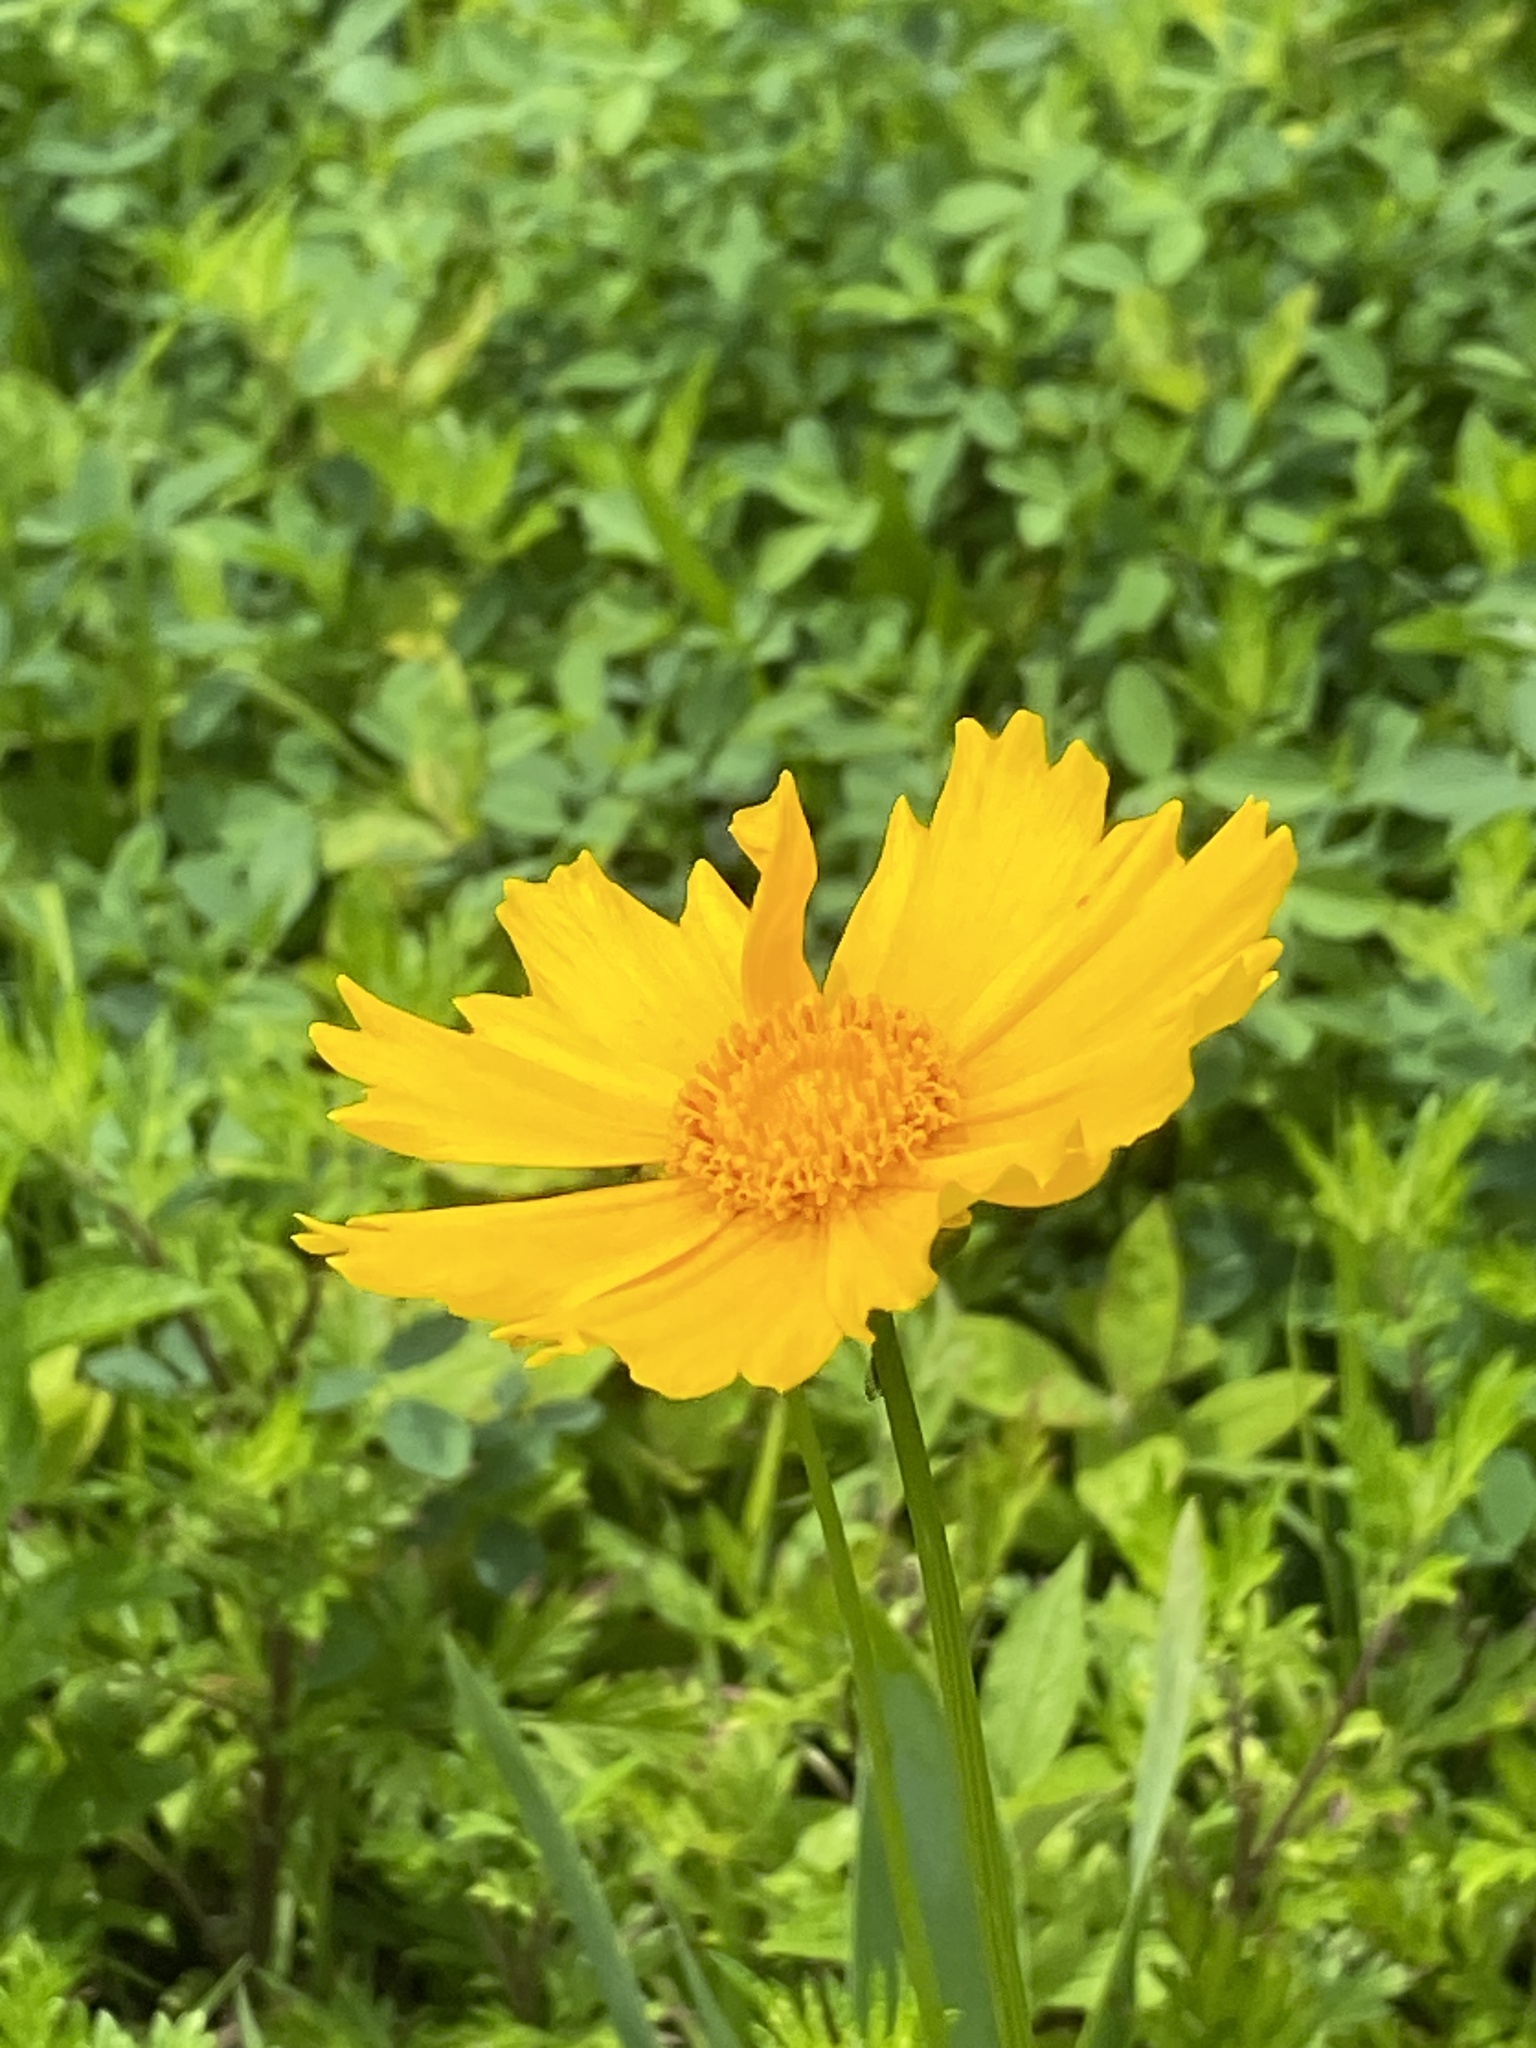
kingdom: Plantae
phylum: Tracheophyta
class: Magnoliopsida
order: Asterales
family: Asteraceae
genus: Coreopsis
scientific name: Coreopsis lanceolata
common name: Garden coreopsis
